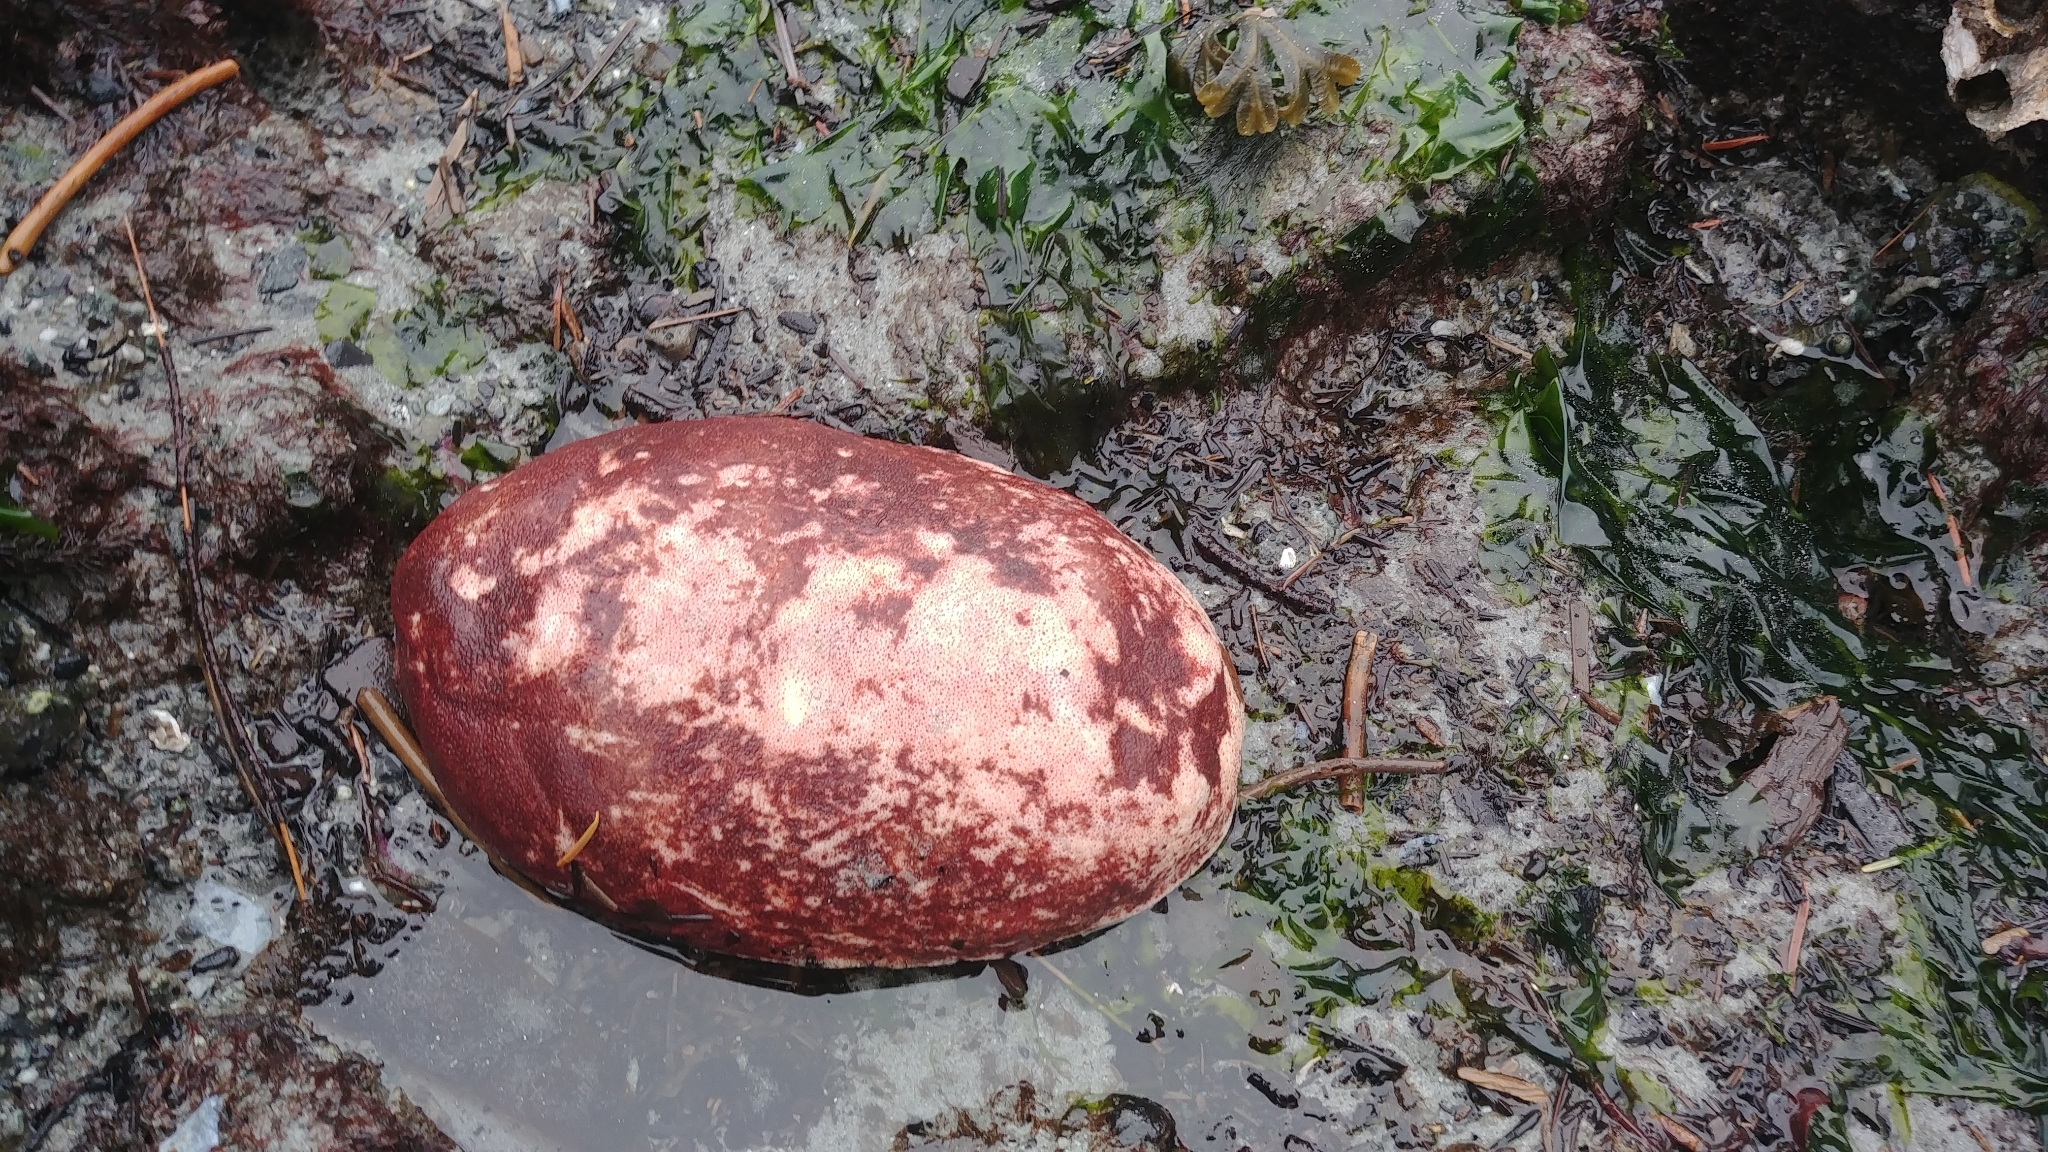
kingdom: Animalia
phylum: Mollusca
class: Polyplacophora
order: Chitonida
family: Acanthochitonidae
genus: Cryptochiton
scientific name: Cryptochiton stelleri
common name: Giant pacific chiton
